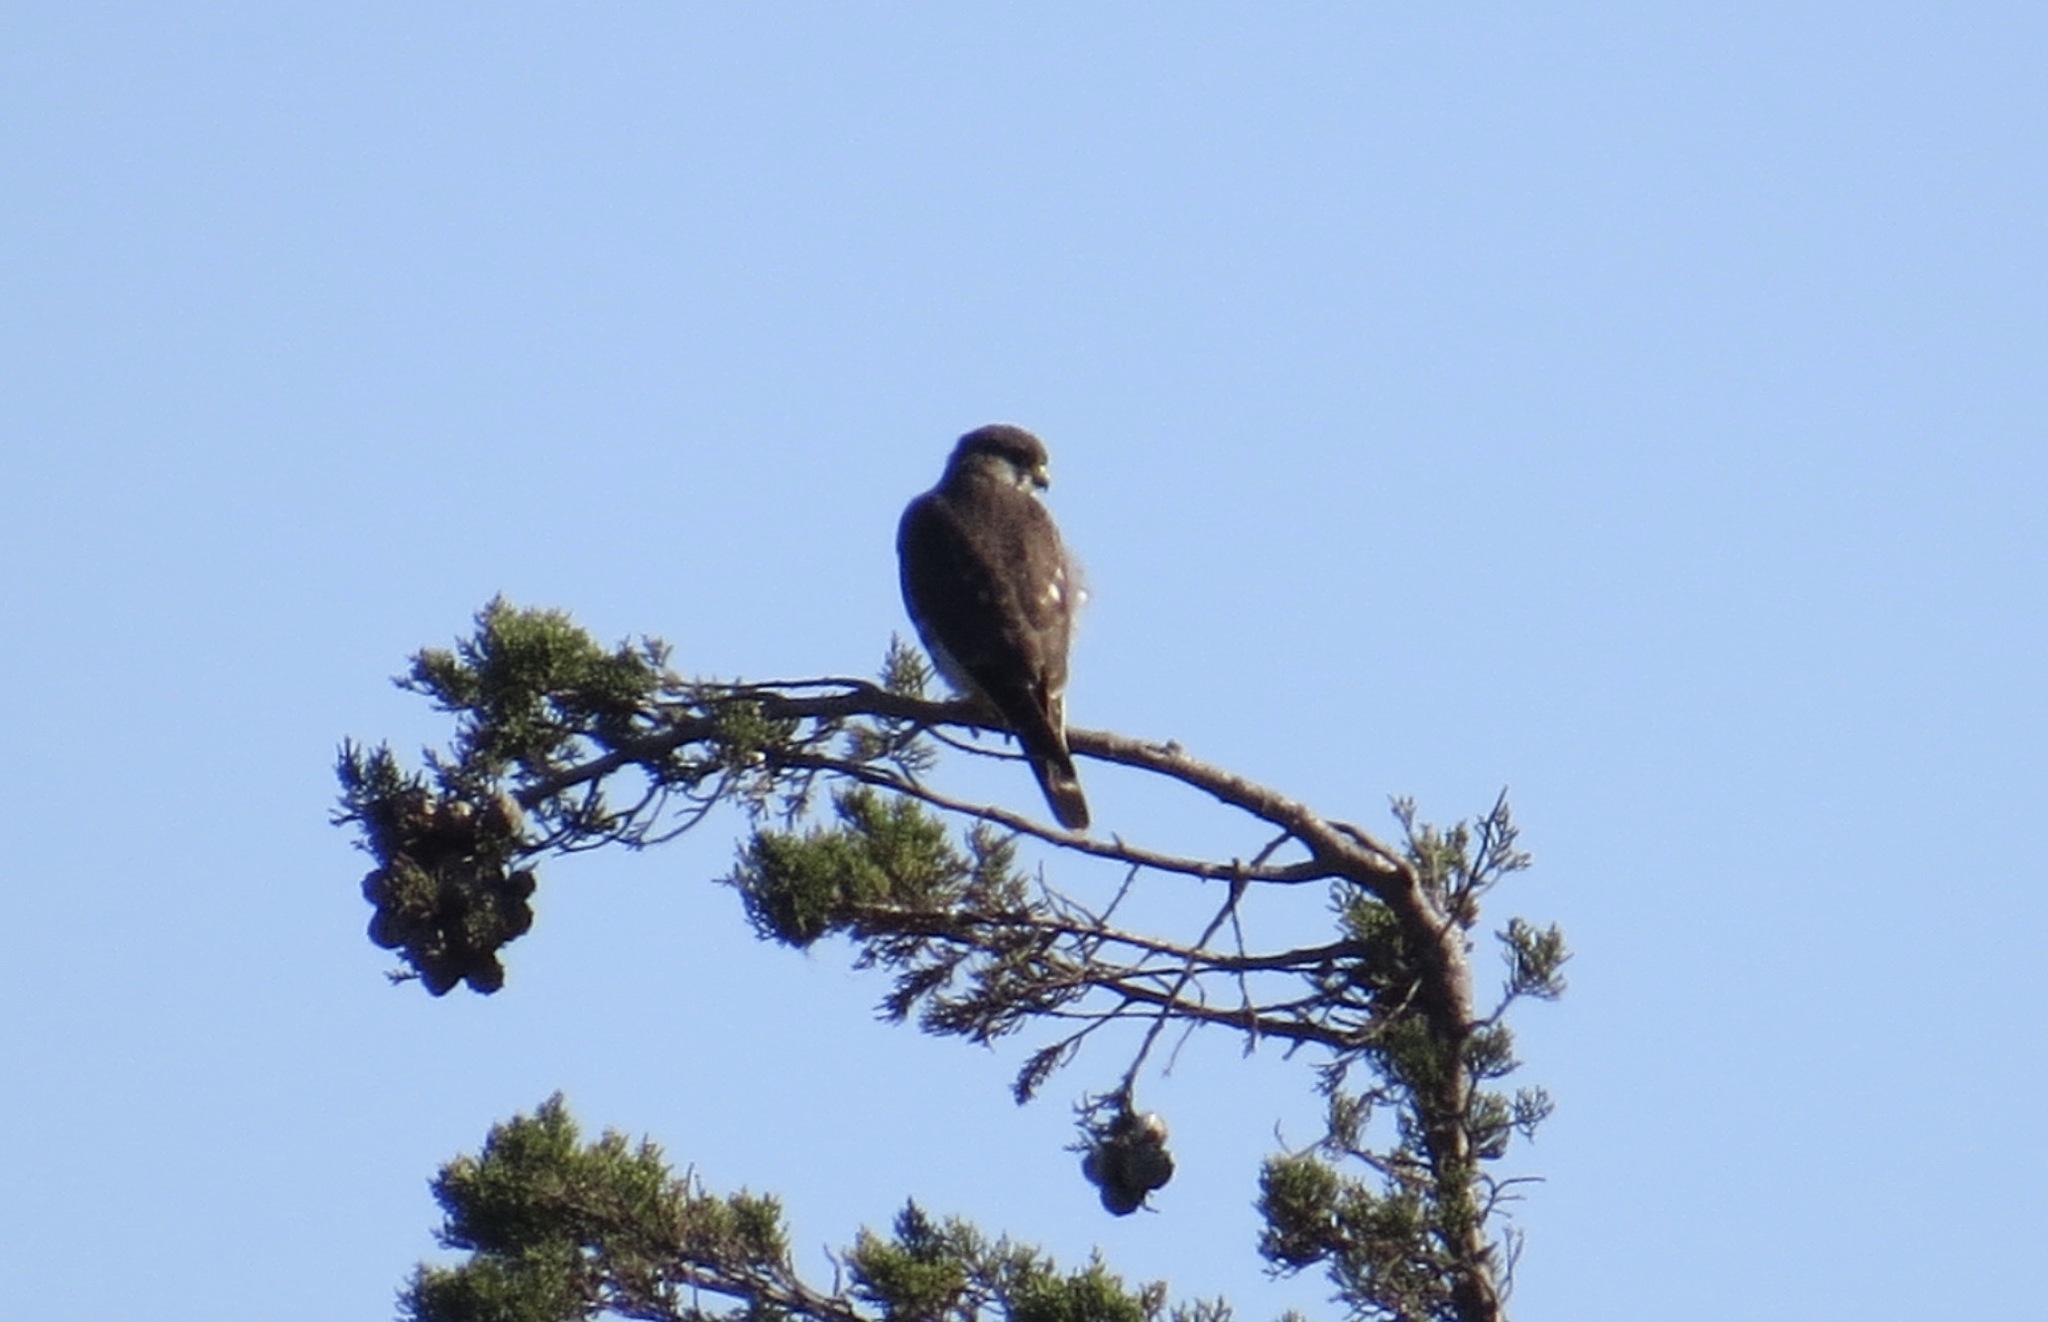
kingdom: Animalia
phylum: Chordata
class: Aves
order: Falconiformes
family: Falconidae
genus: Falco
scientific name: Falco columbarius
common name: Merlin
